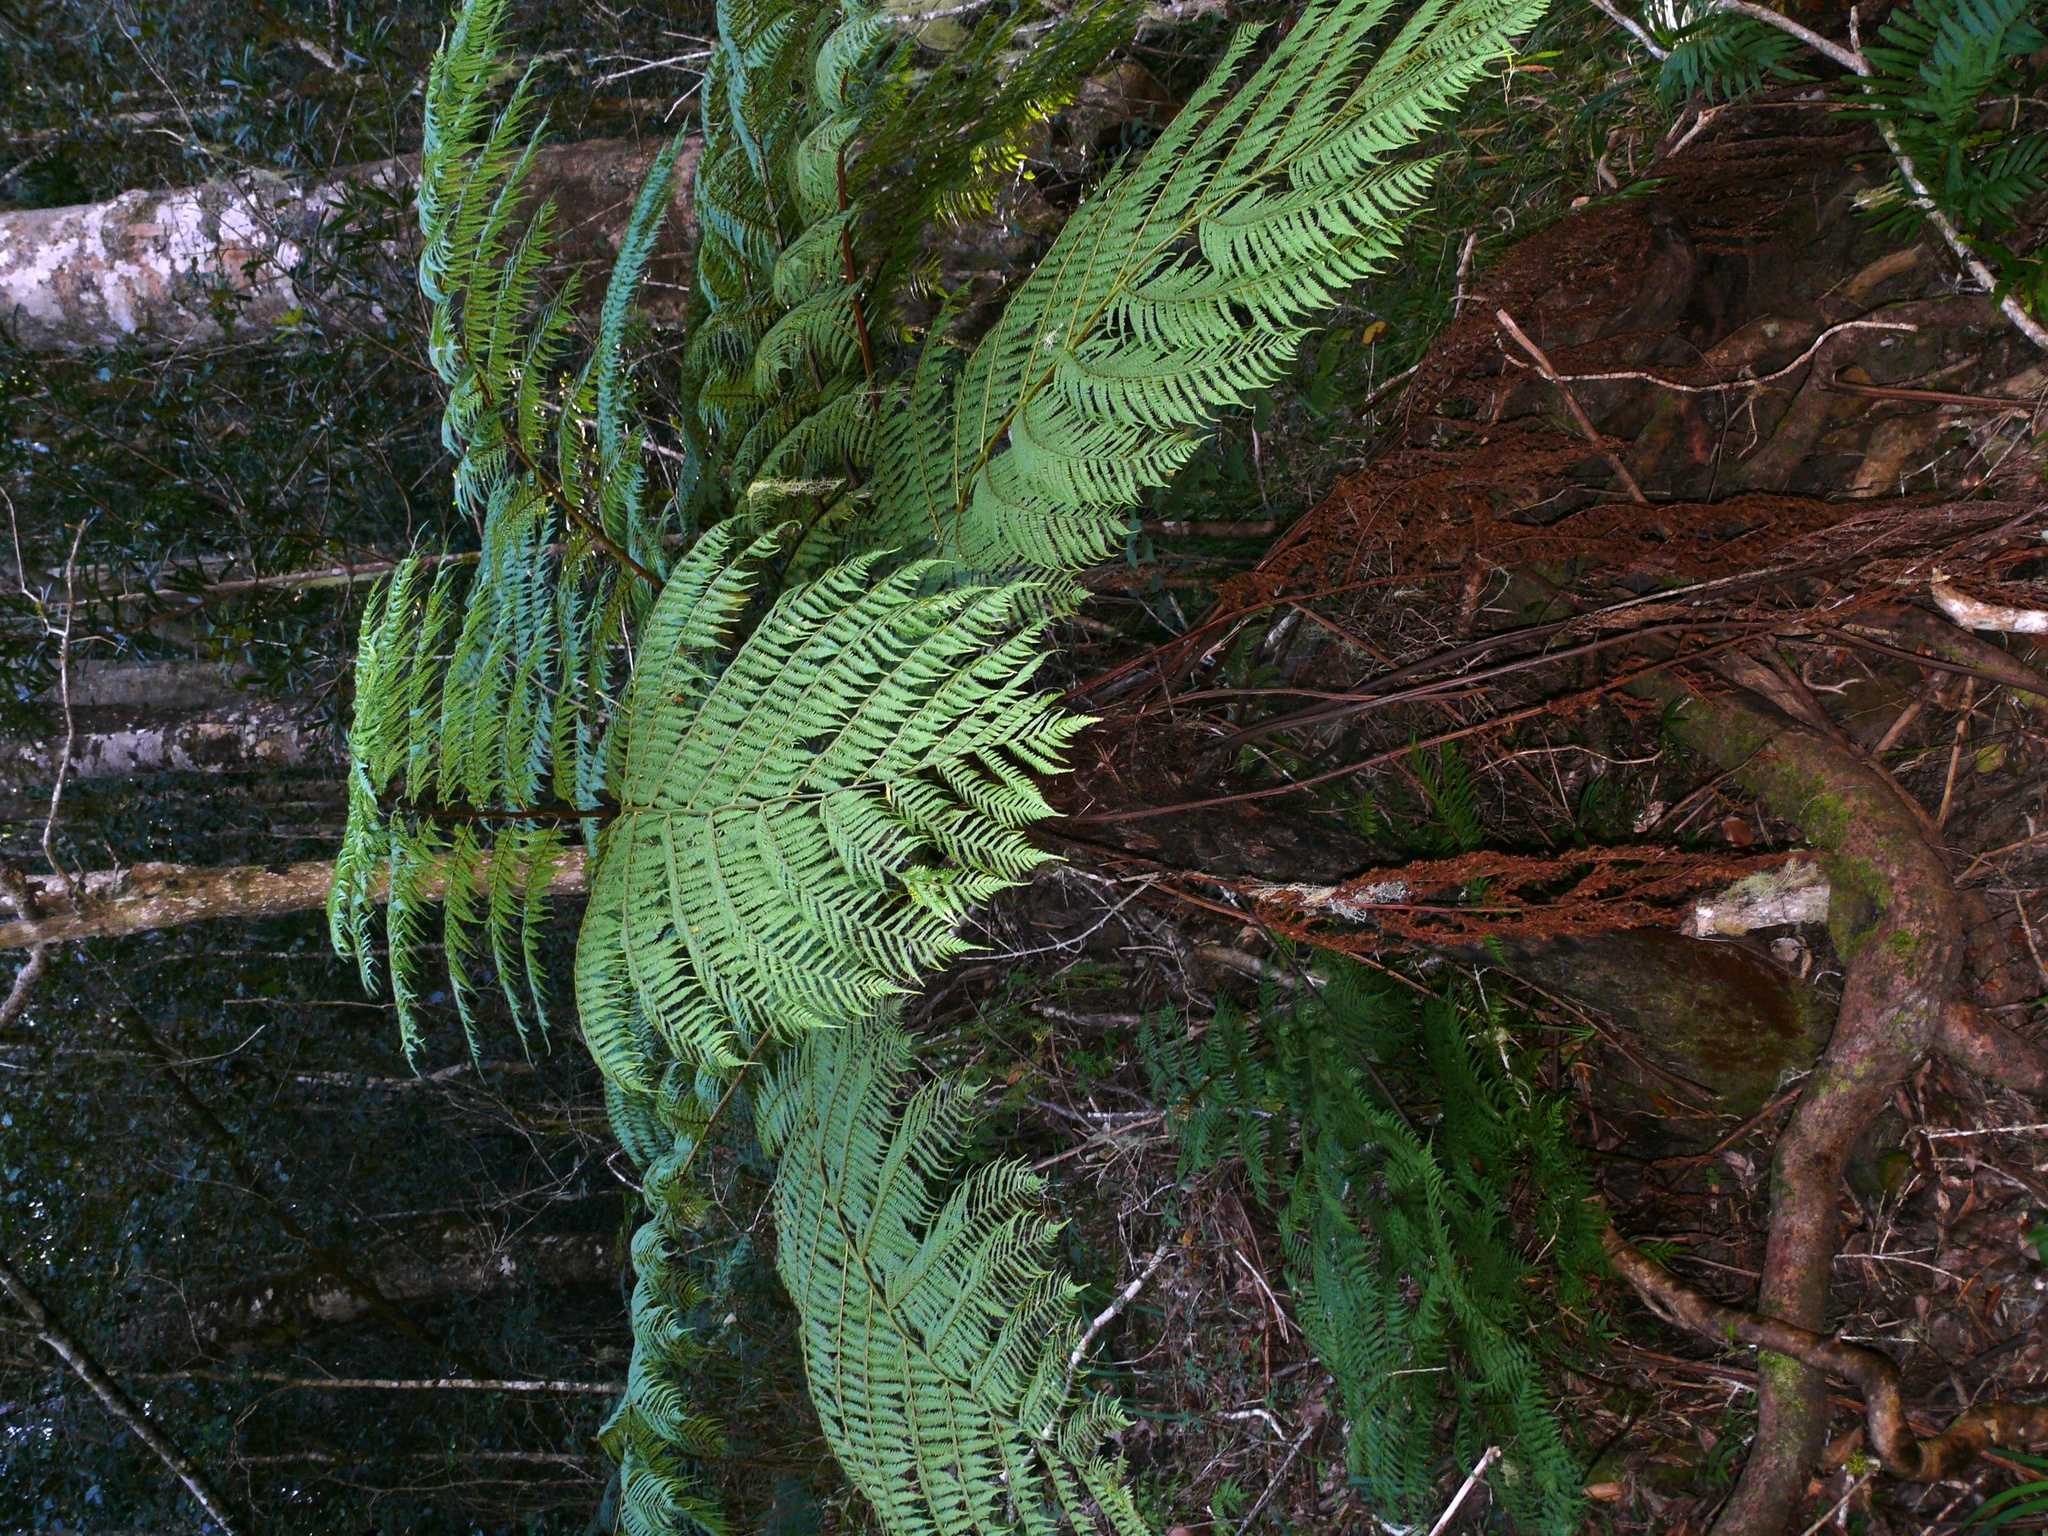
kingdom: Plantae
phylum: Tracheophyta
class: Polypodiopsida
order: Cyatheales
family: Cyatheaceae
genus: Gymnosphaera
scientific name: Gymnosphaera capensis
